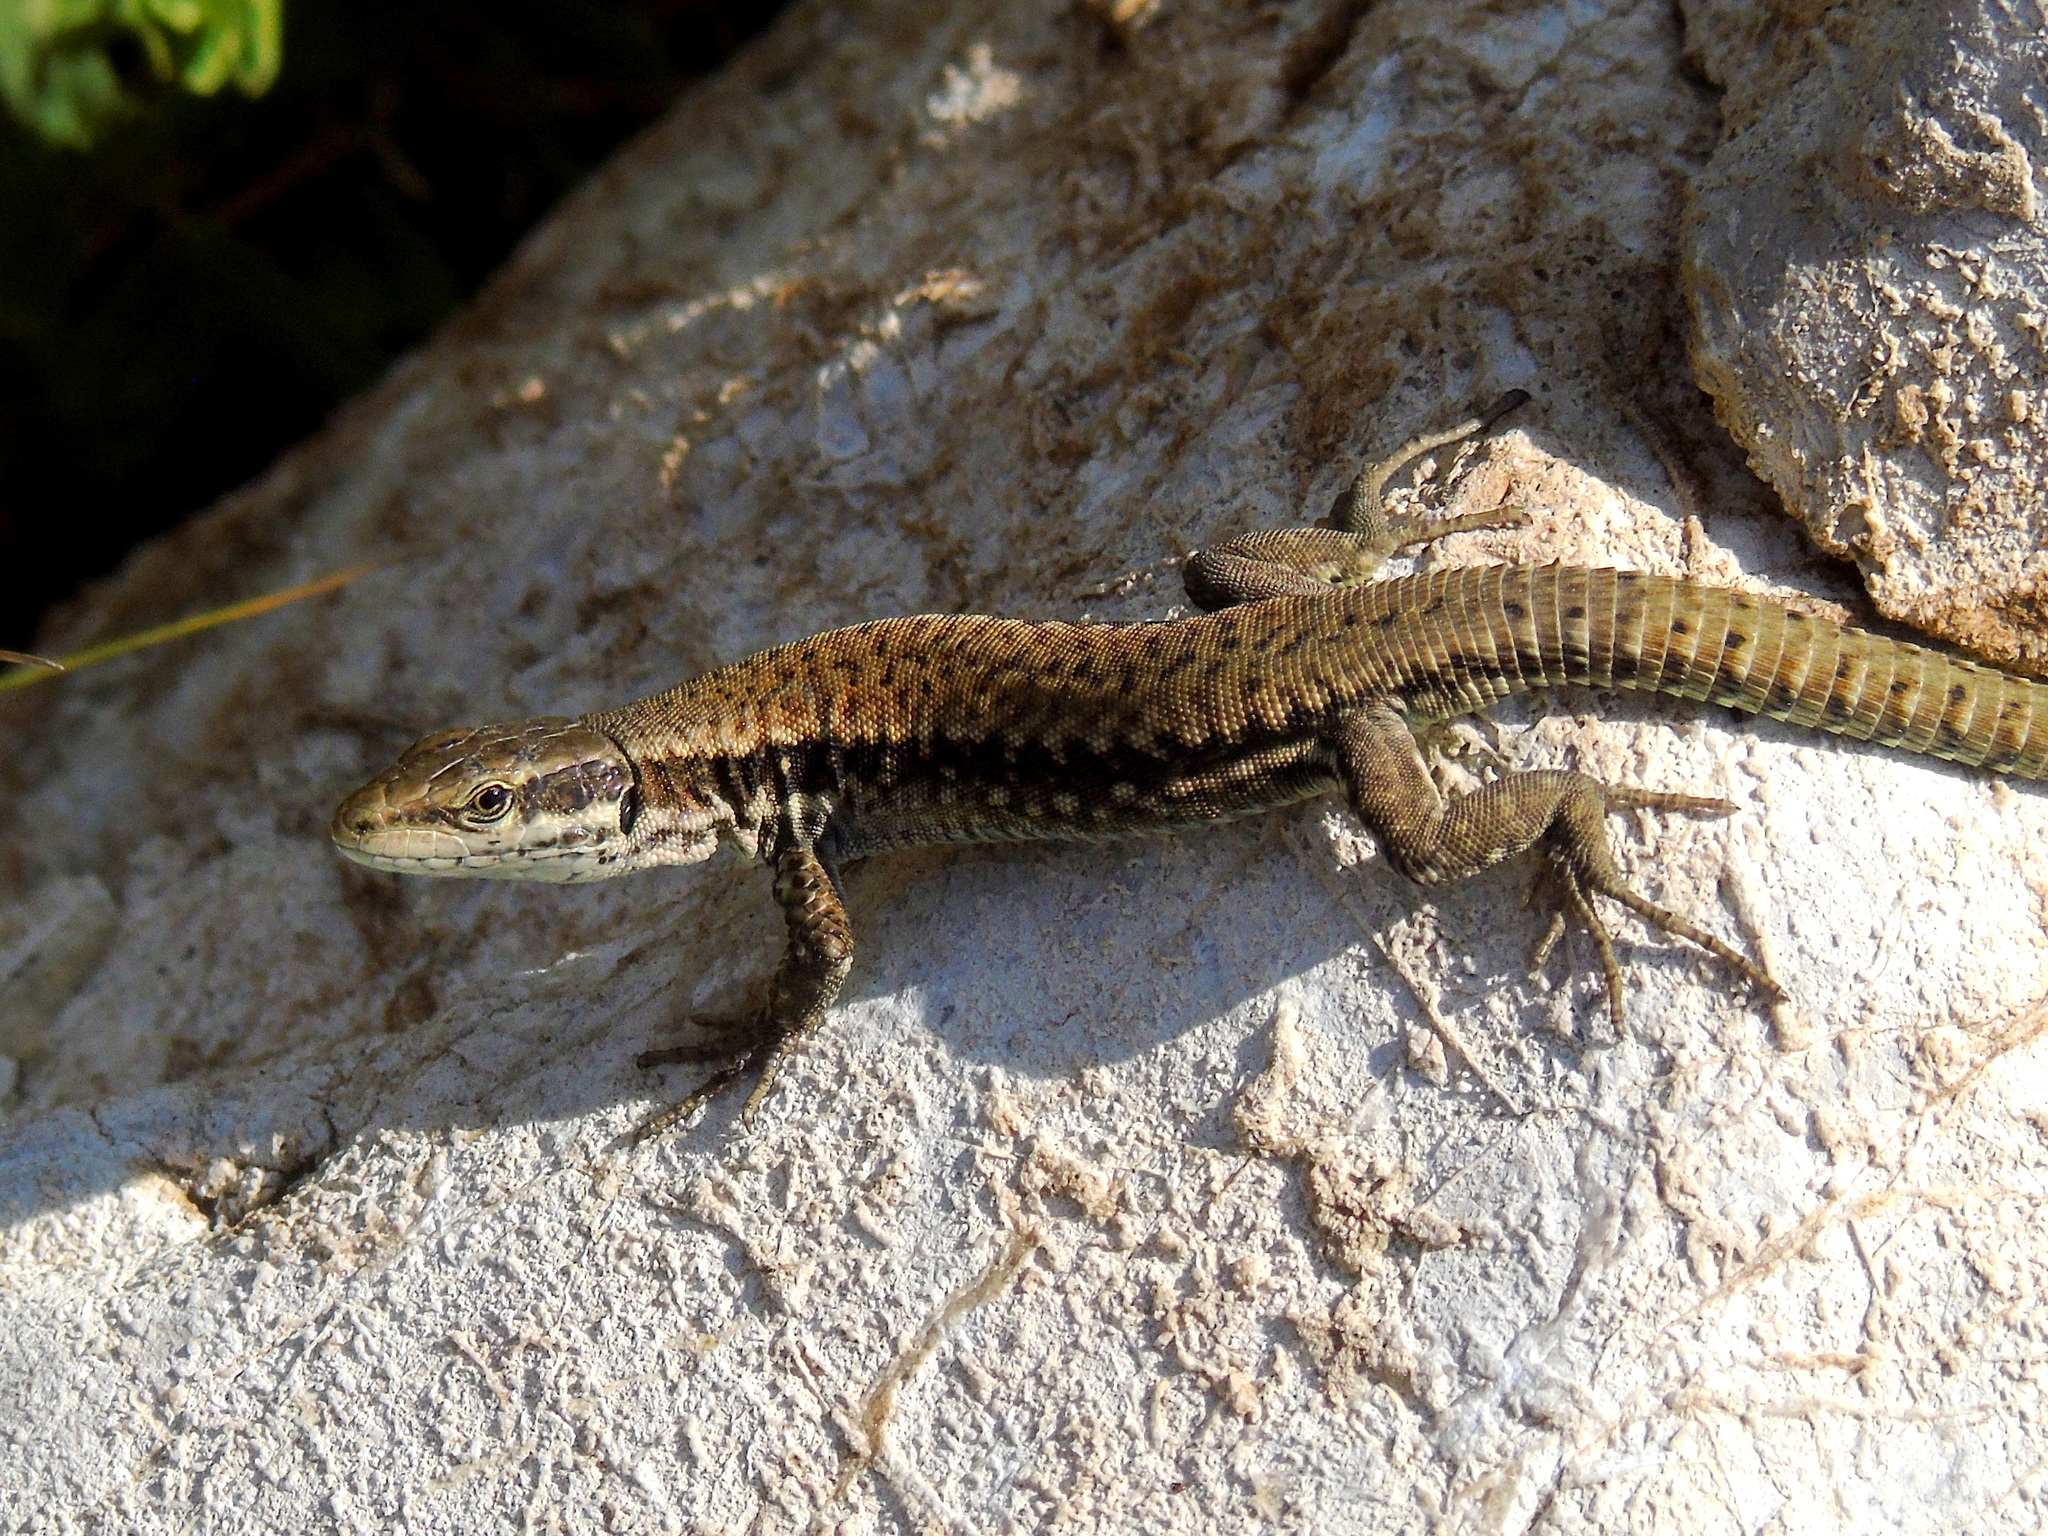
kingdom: Animalia
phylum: Chordata
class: Squamata
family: Lacertidae
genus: Podarcis
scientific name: Podarcis muralis
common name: Common wall lizard
